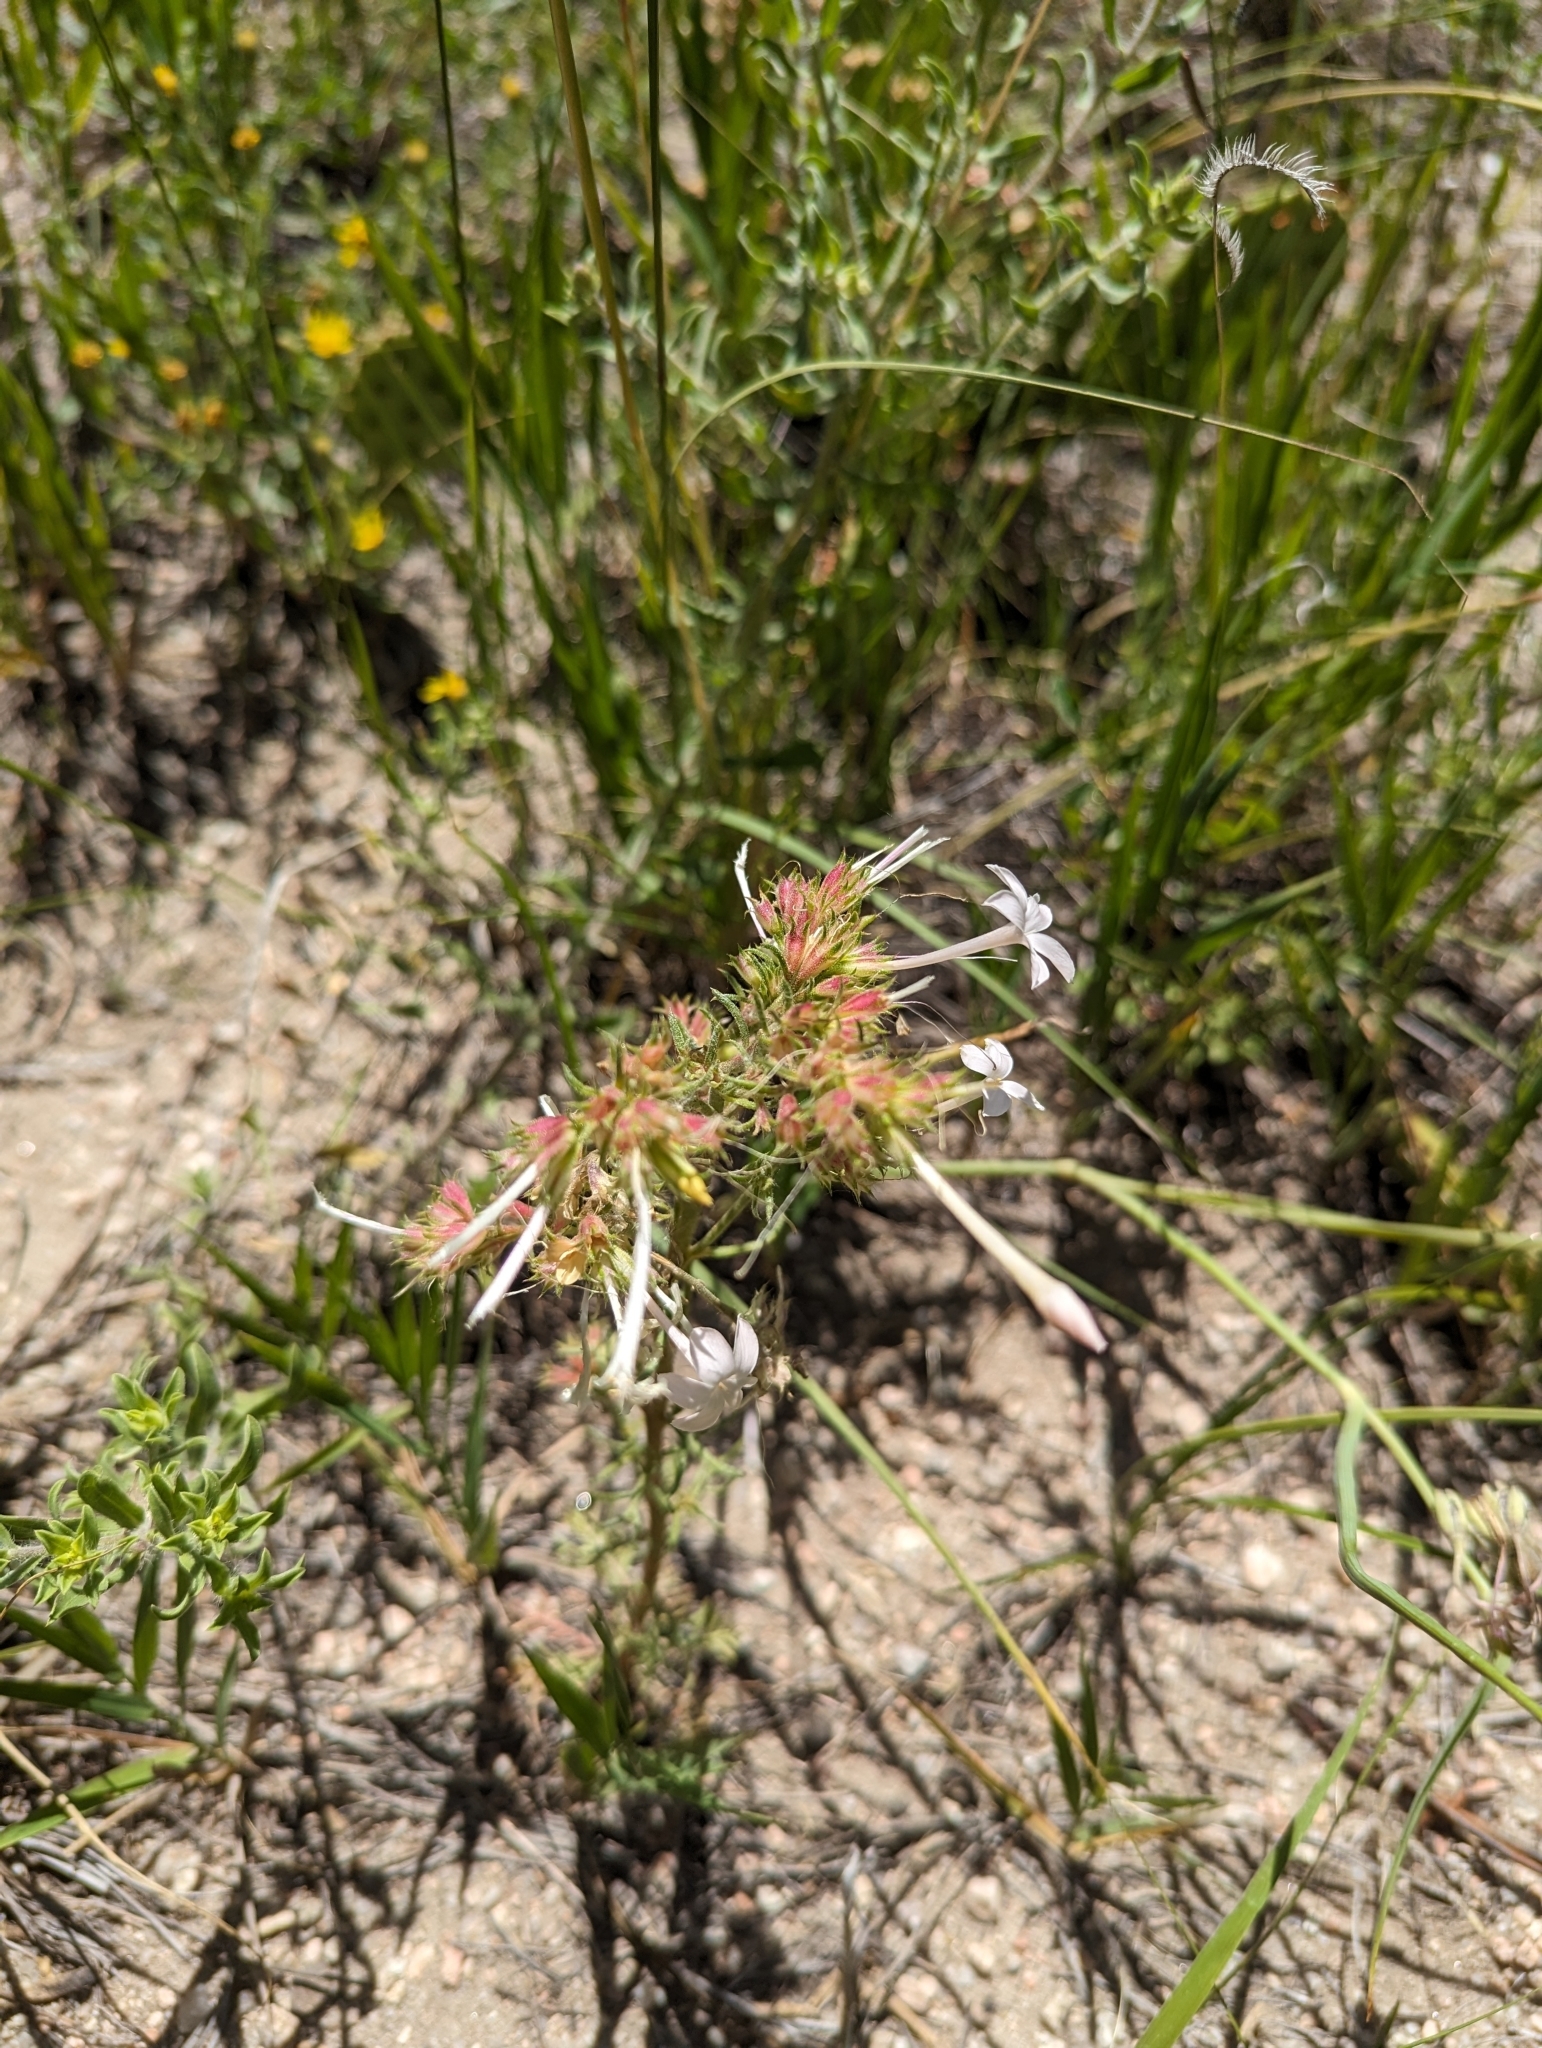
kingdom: Plantae
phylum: Tracheophyta
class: Magnoliopsida
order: Ericales
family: Polemoniaceae
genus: Ipomopsis
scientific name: Ipomopsis aggregata
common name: Scarlet gilia
